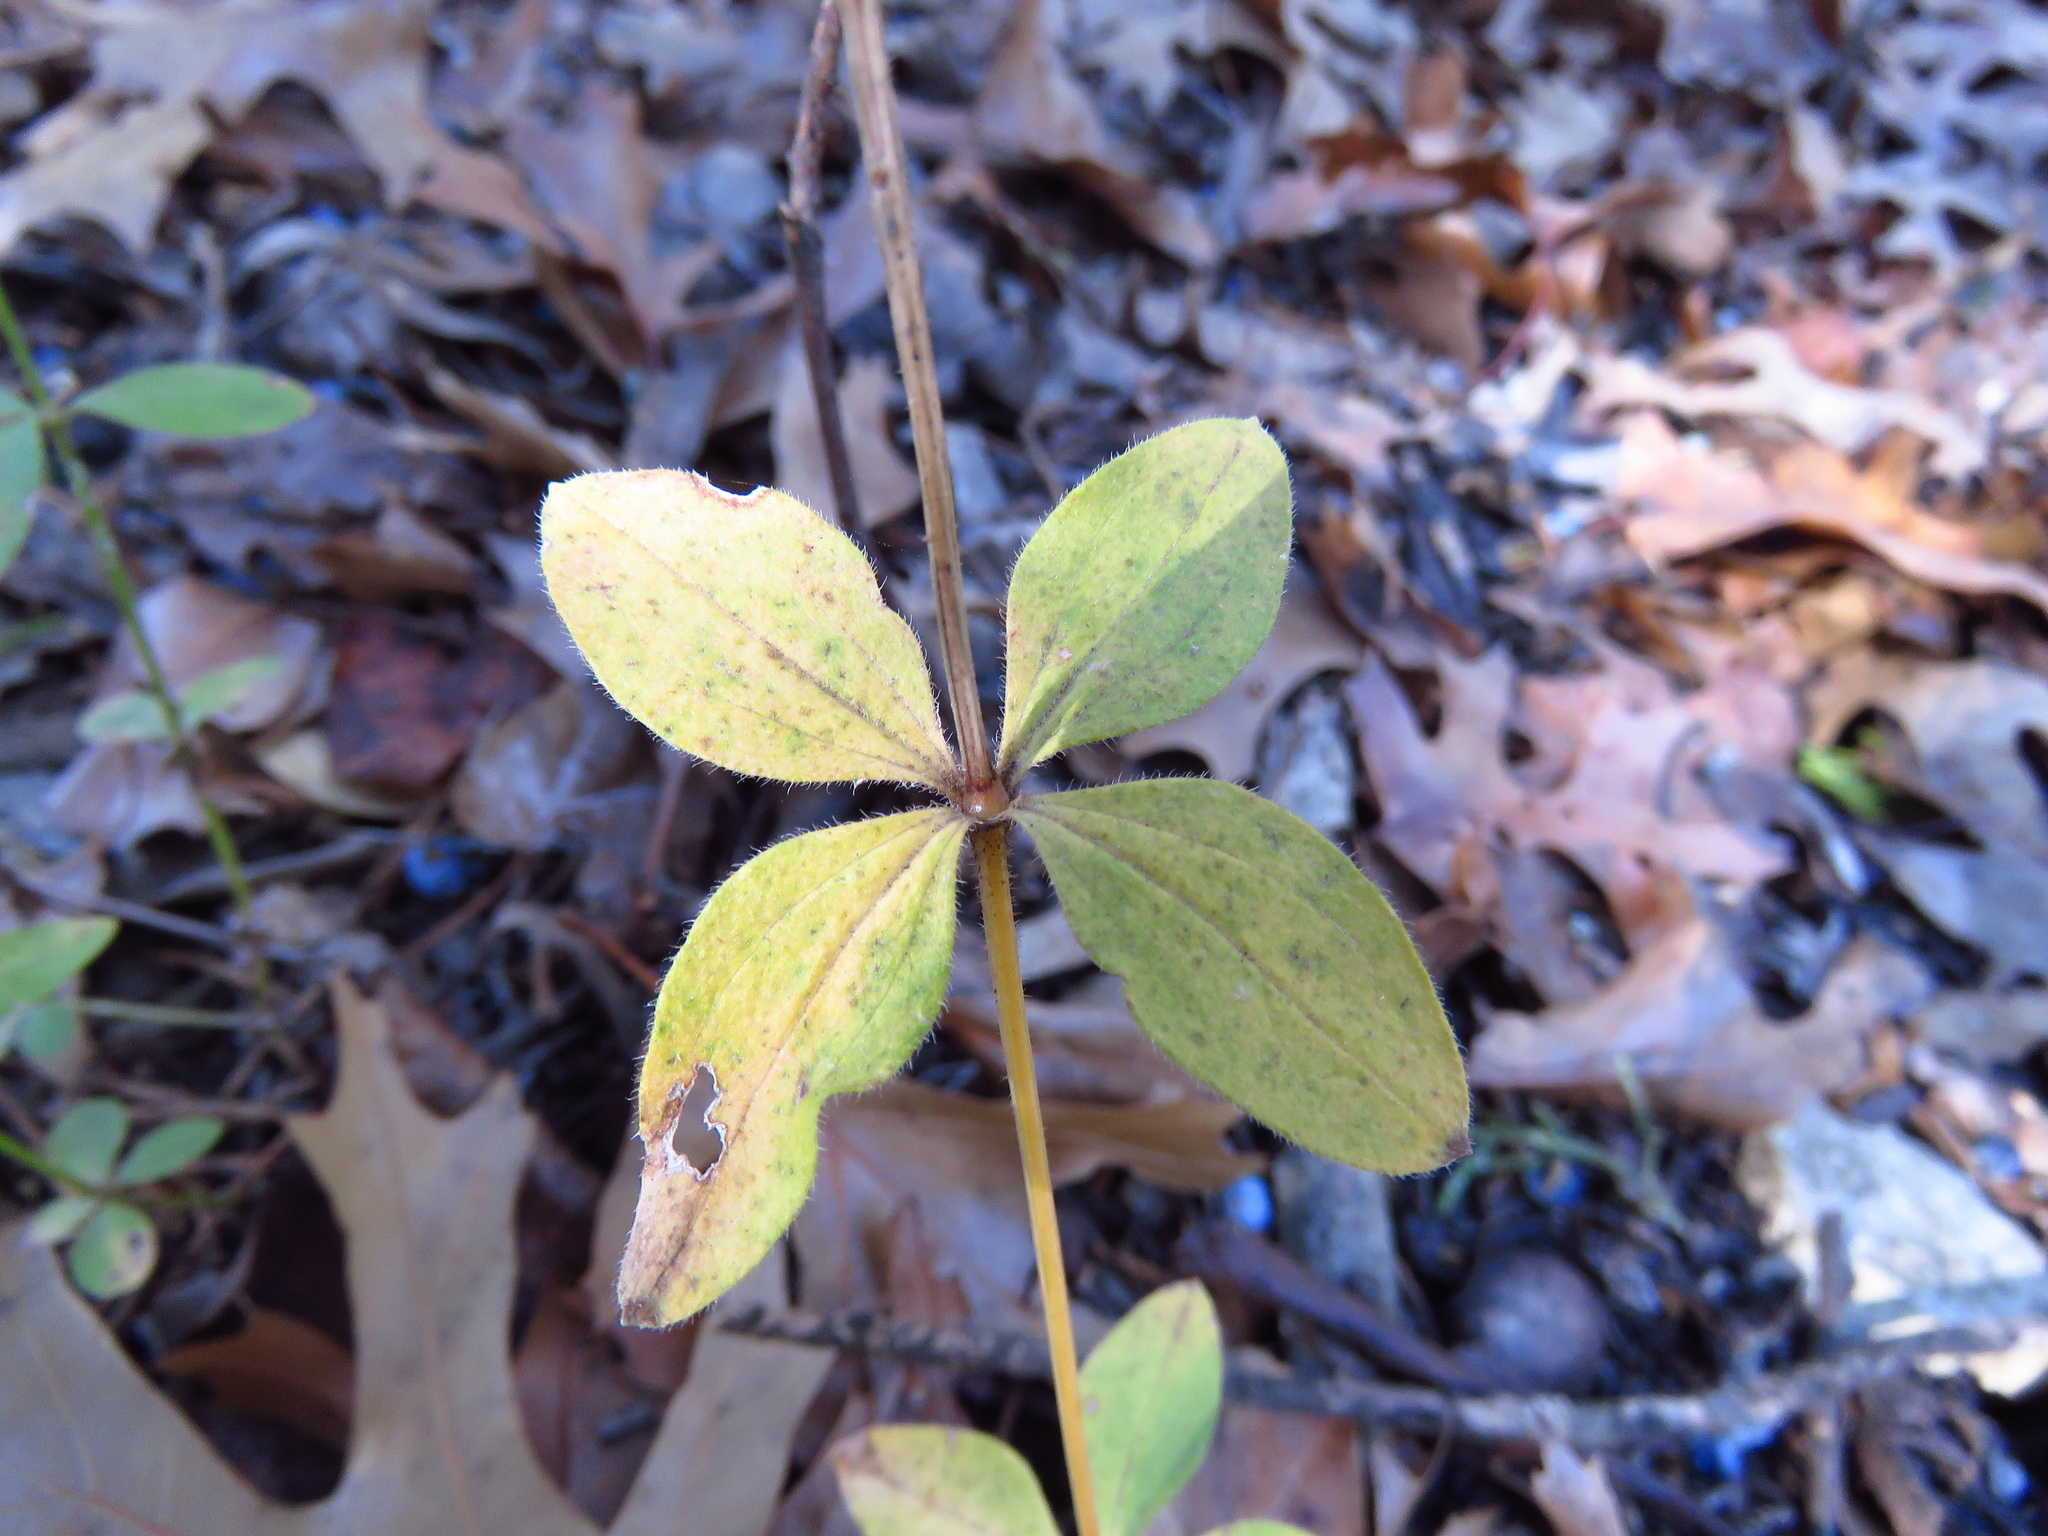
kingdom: Plantae
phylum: Tracheophyta
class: Magnoliopsida
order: Gentianales
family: Rubiaceae
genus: Galium
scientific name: Galium circaezans
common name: Forest bedstraw
